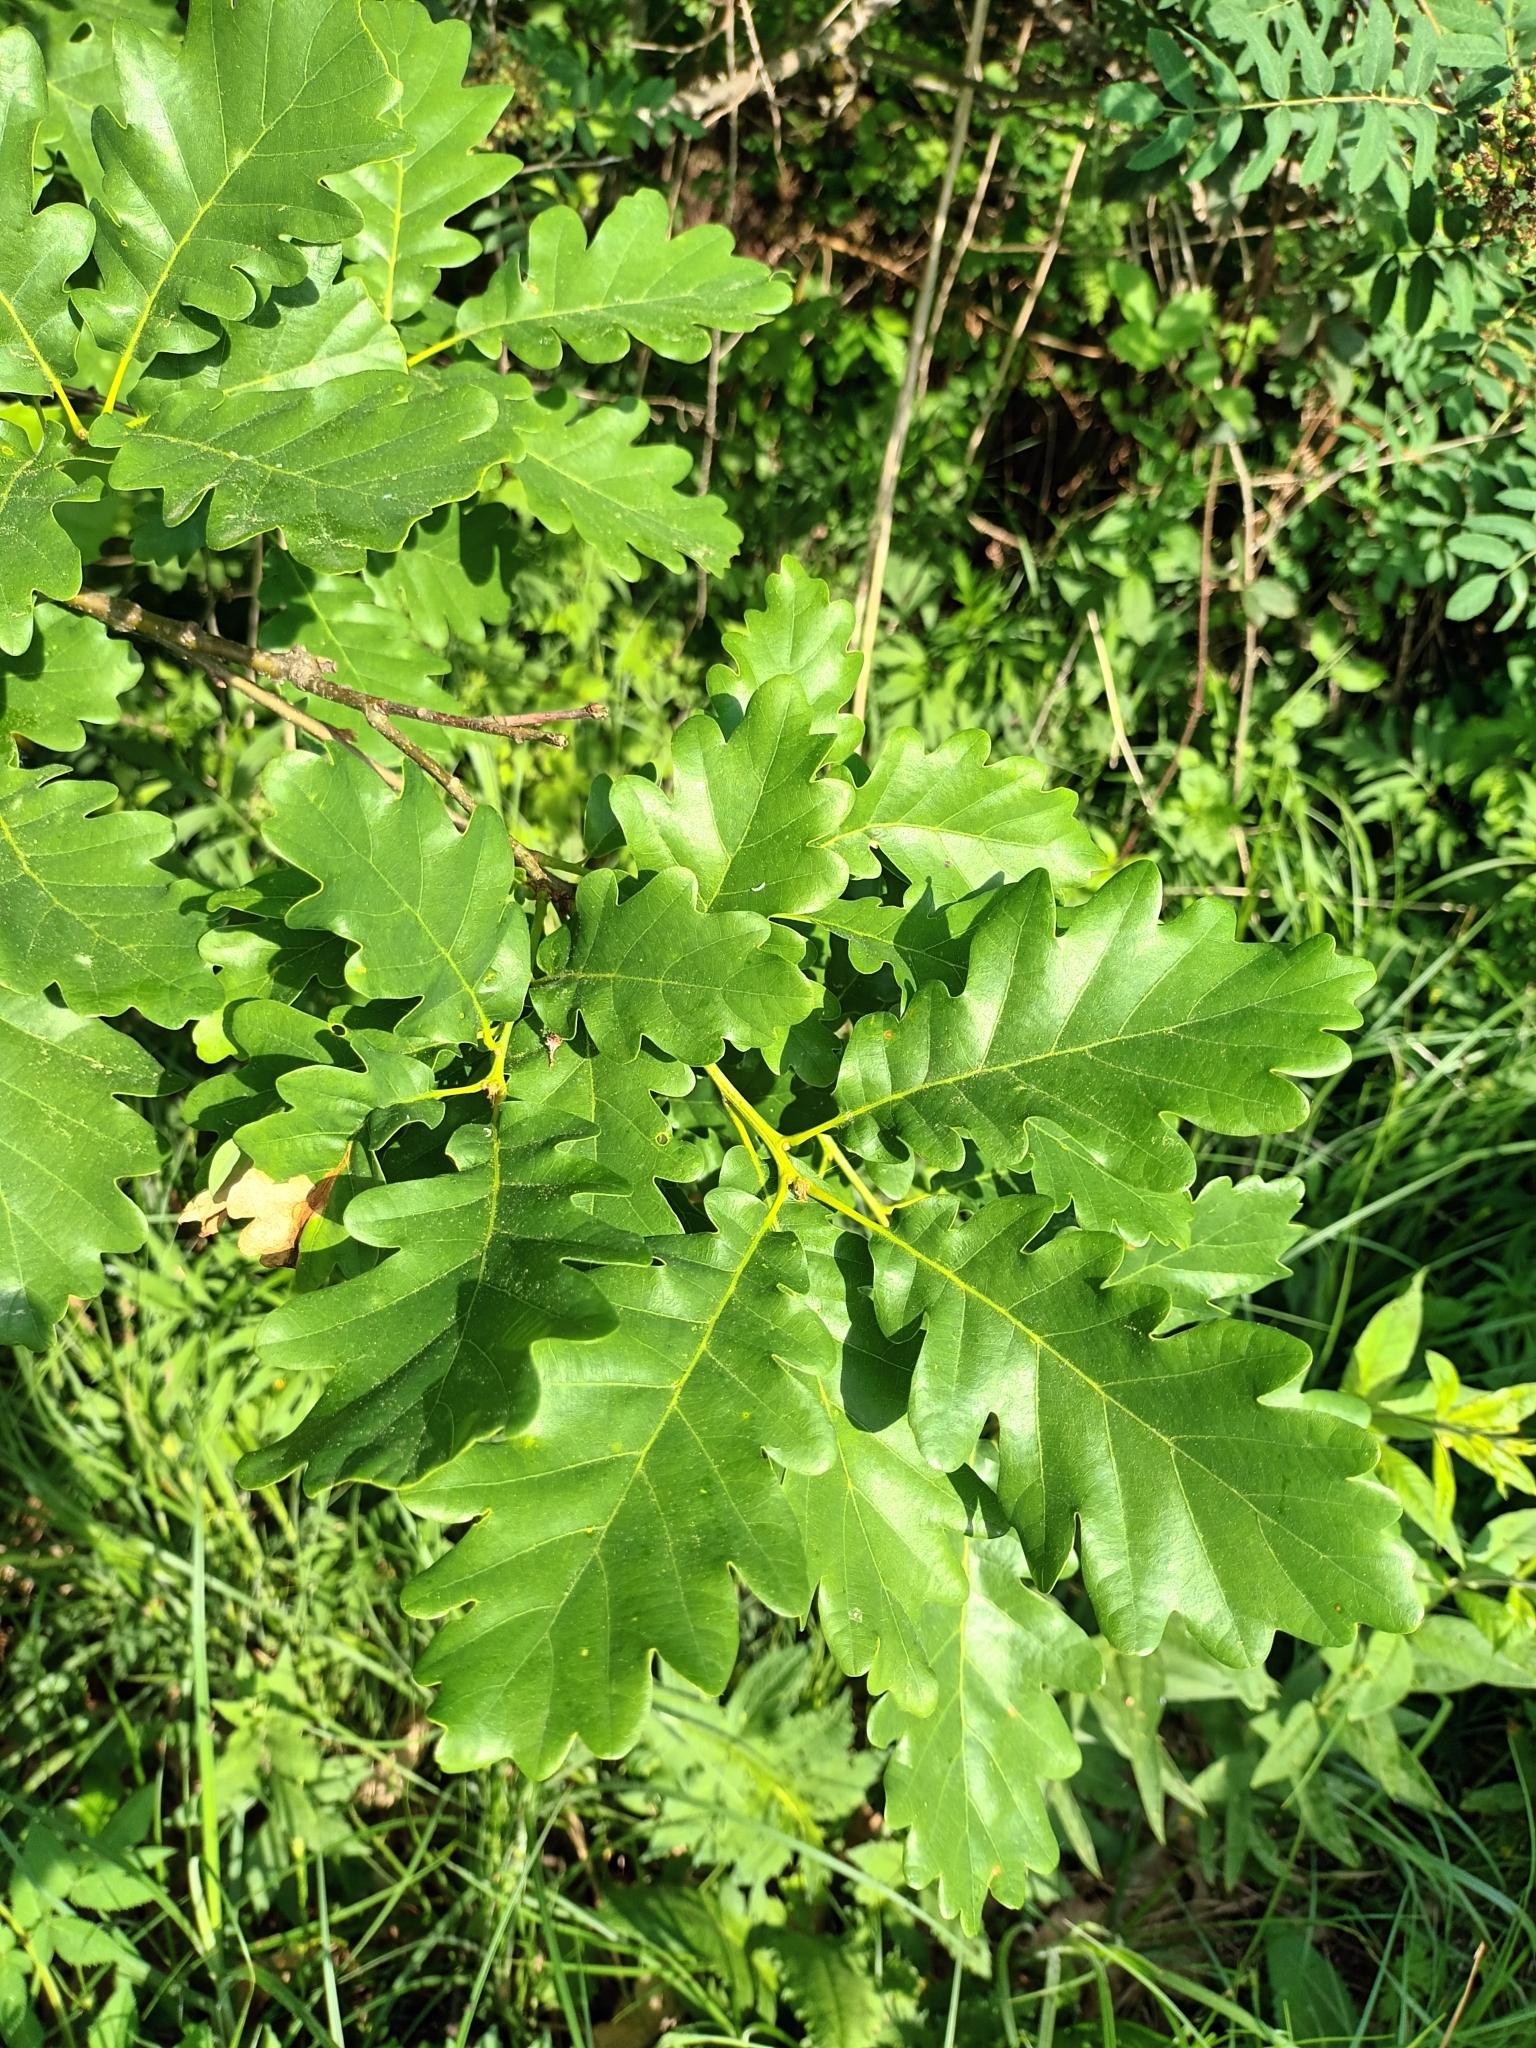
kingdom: Plantae
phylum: Tracheophyta
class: Magnoliopsida
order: Fagales
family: Fagaceae
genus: Quercus
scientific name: Quercus petraea
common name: Sessile oak
